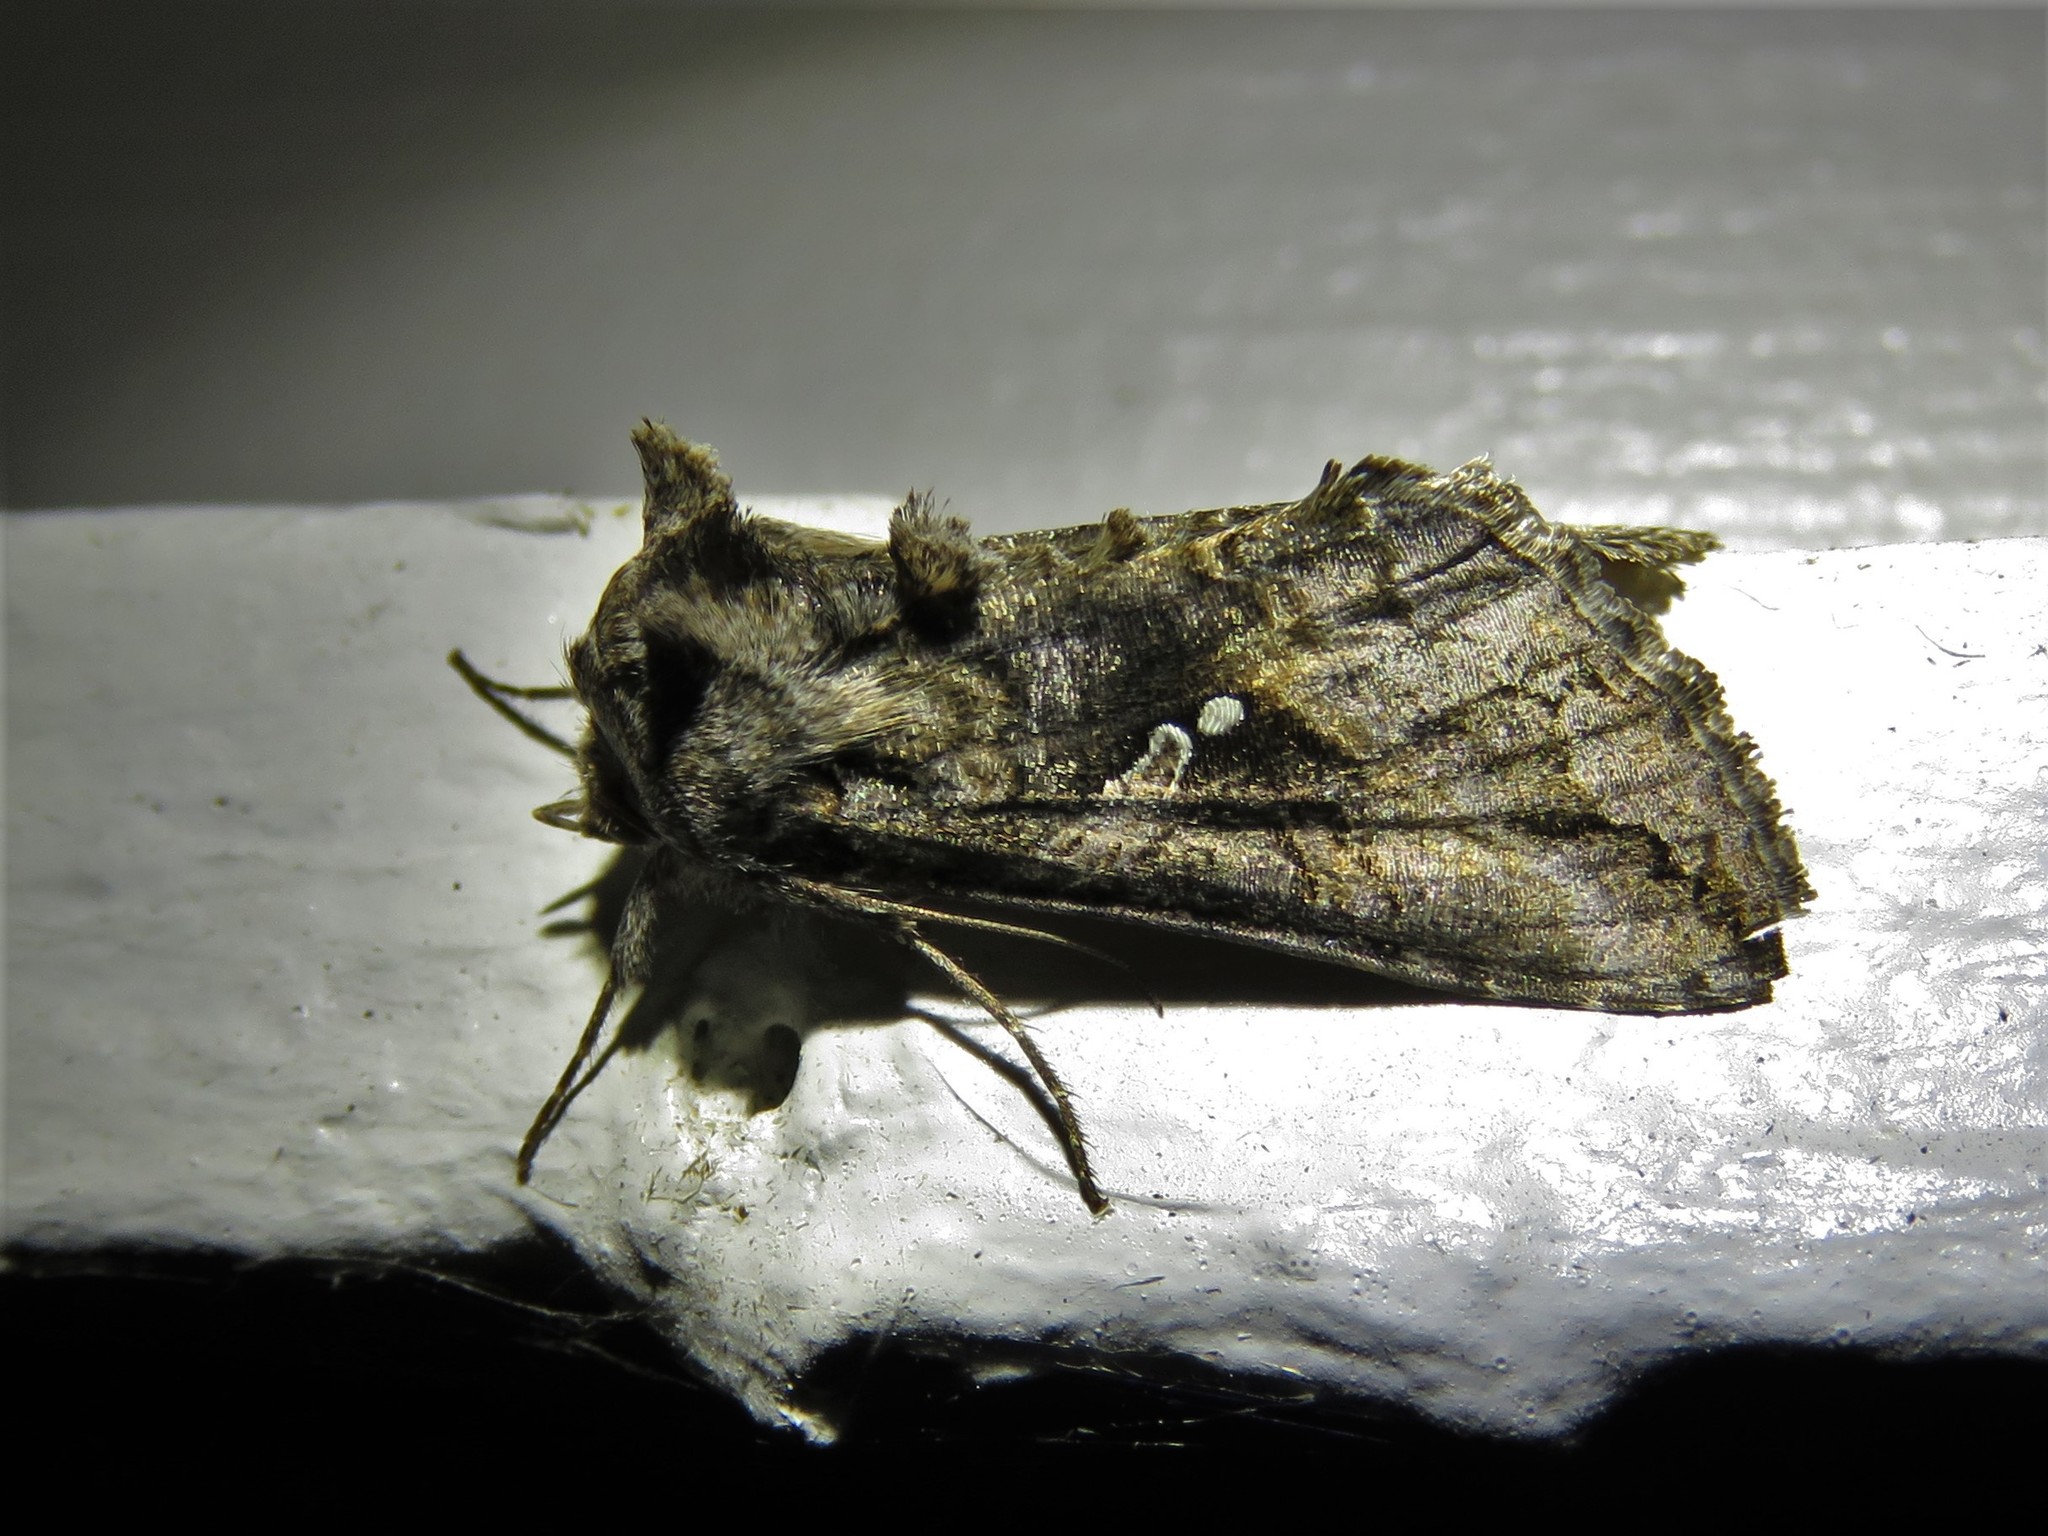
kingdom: Animalia
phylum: Arthropoda
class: Insecta
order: Lepidoptera
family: Noctuidae
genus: Rachiplusia
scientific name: Rachiplusia ou
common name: Gray looper moth
